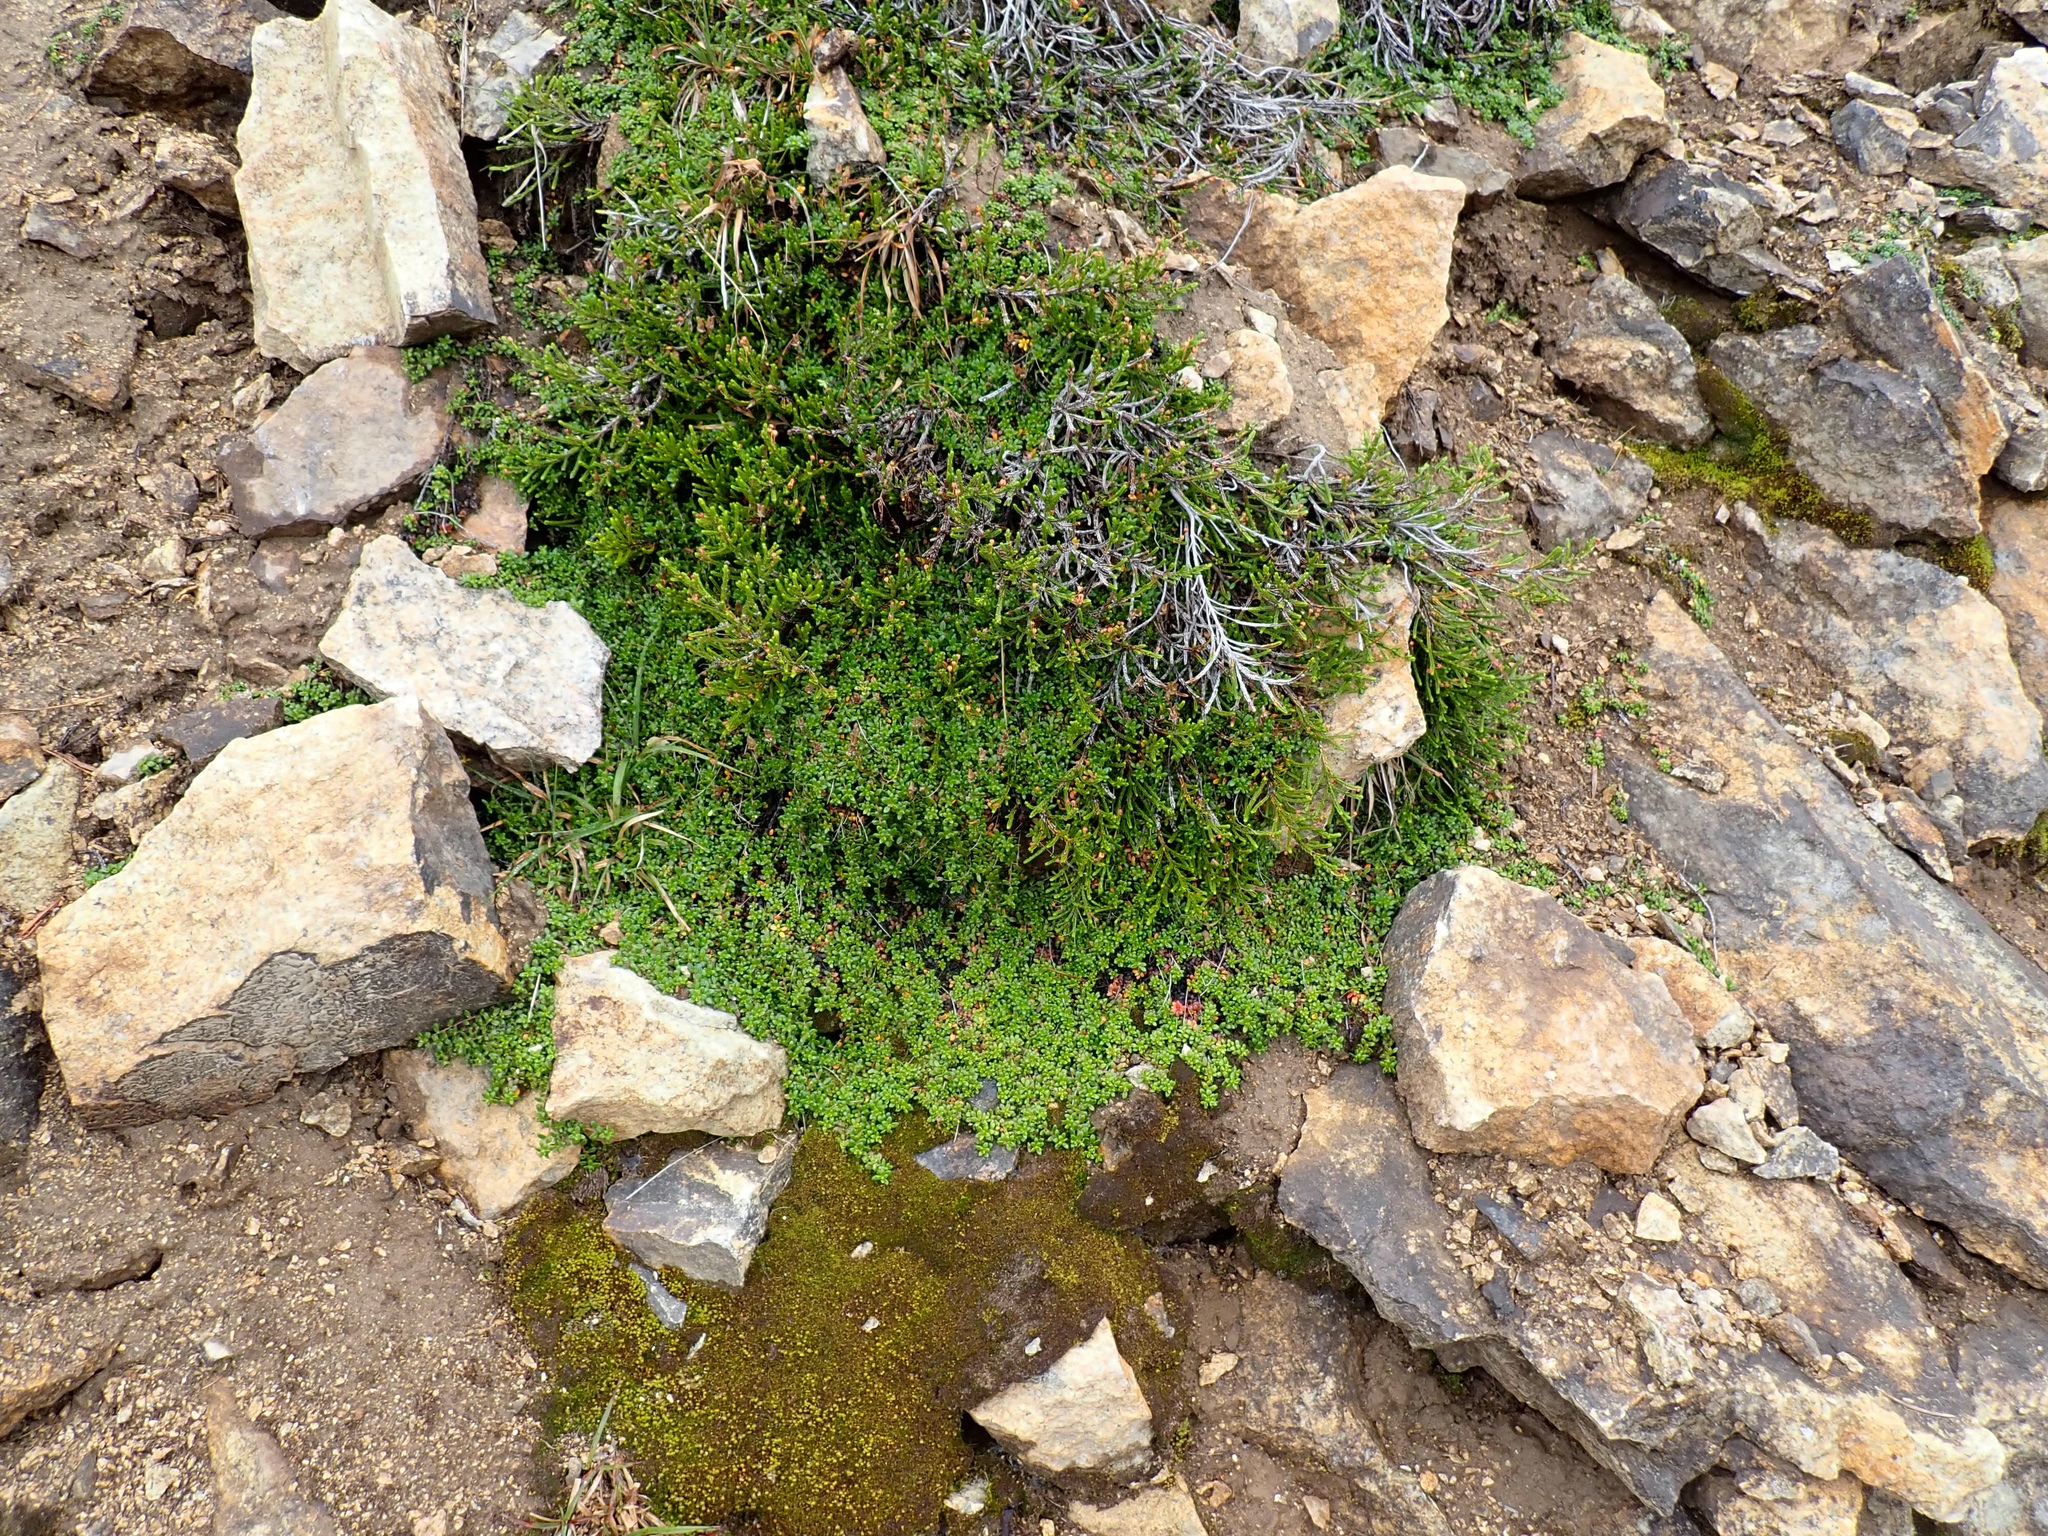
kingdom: Plantae
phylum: Tracheophyta
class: Magnoliopsida
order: Saxifragales
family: Saxifragaceae
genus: Micranthes
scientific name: Micranthes tolmiei
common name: Tolmie's saxifrage
